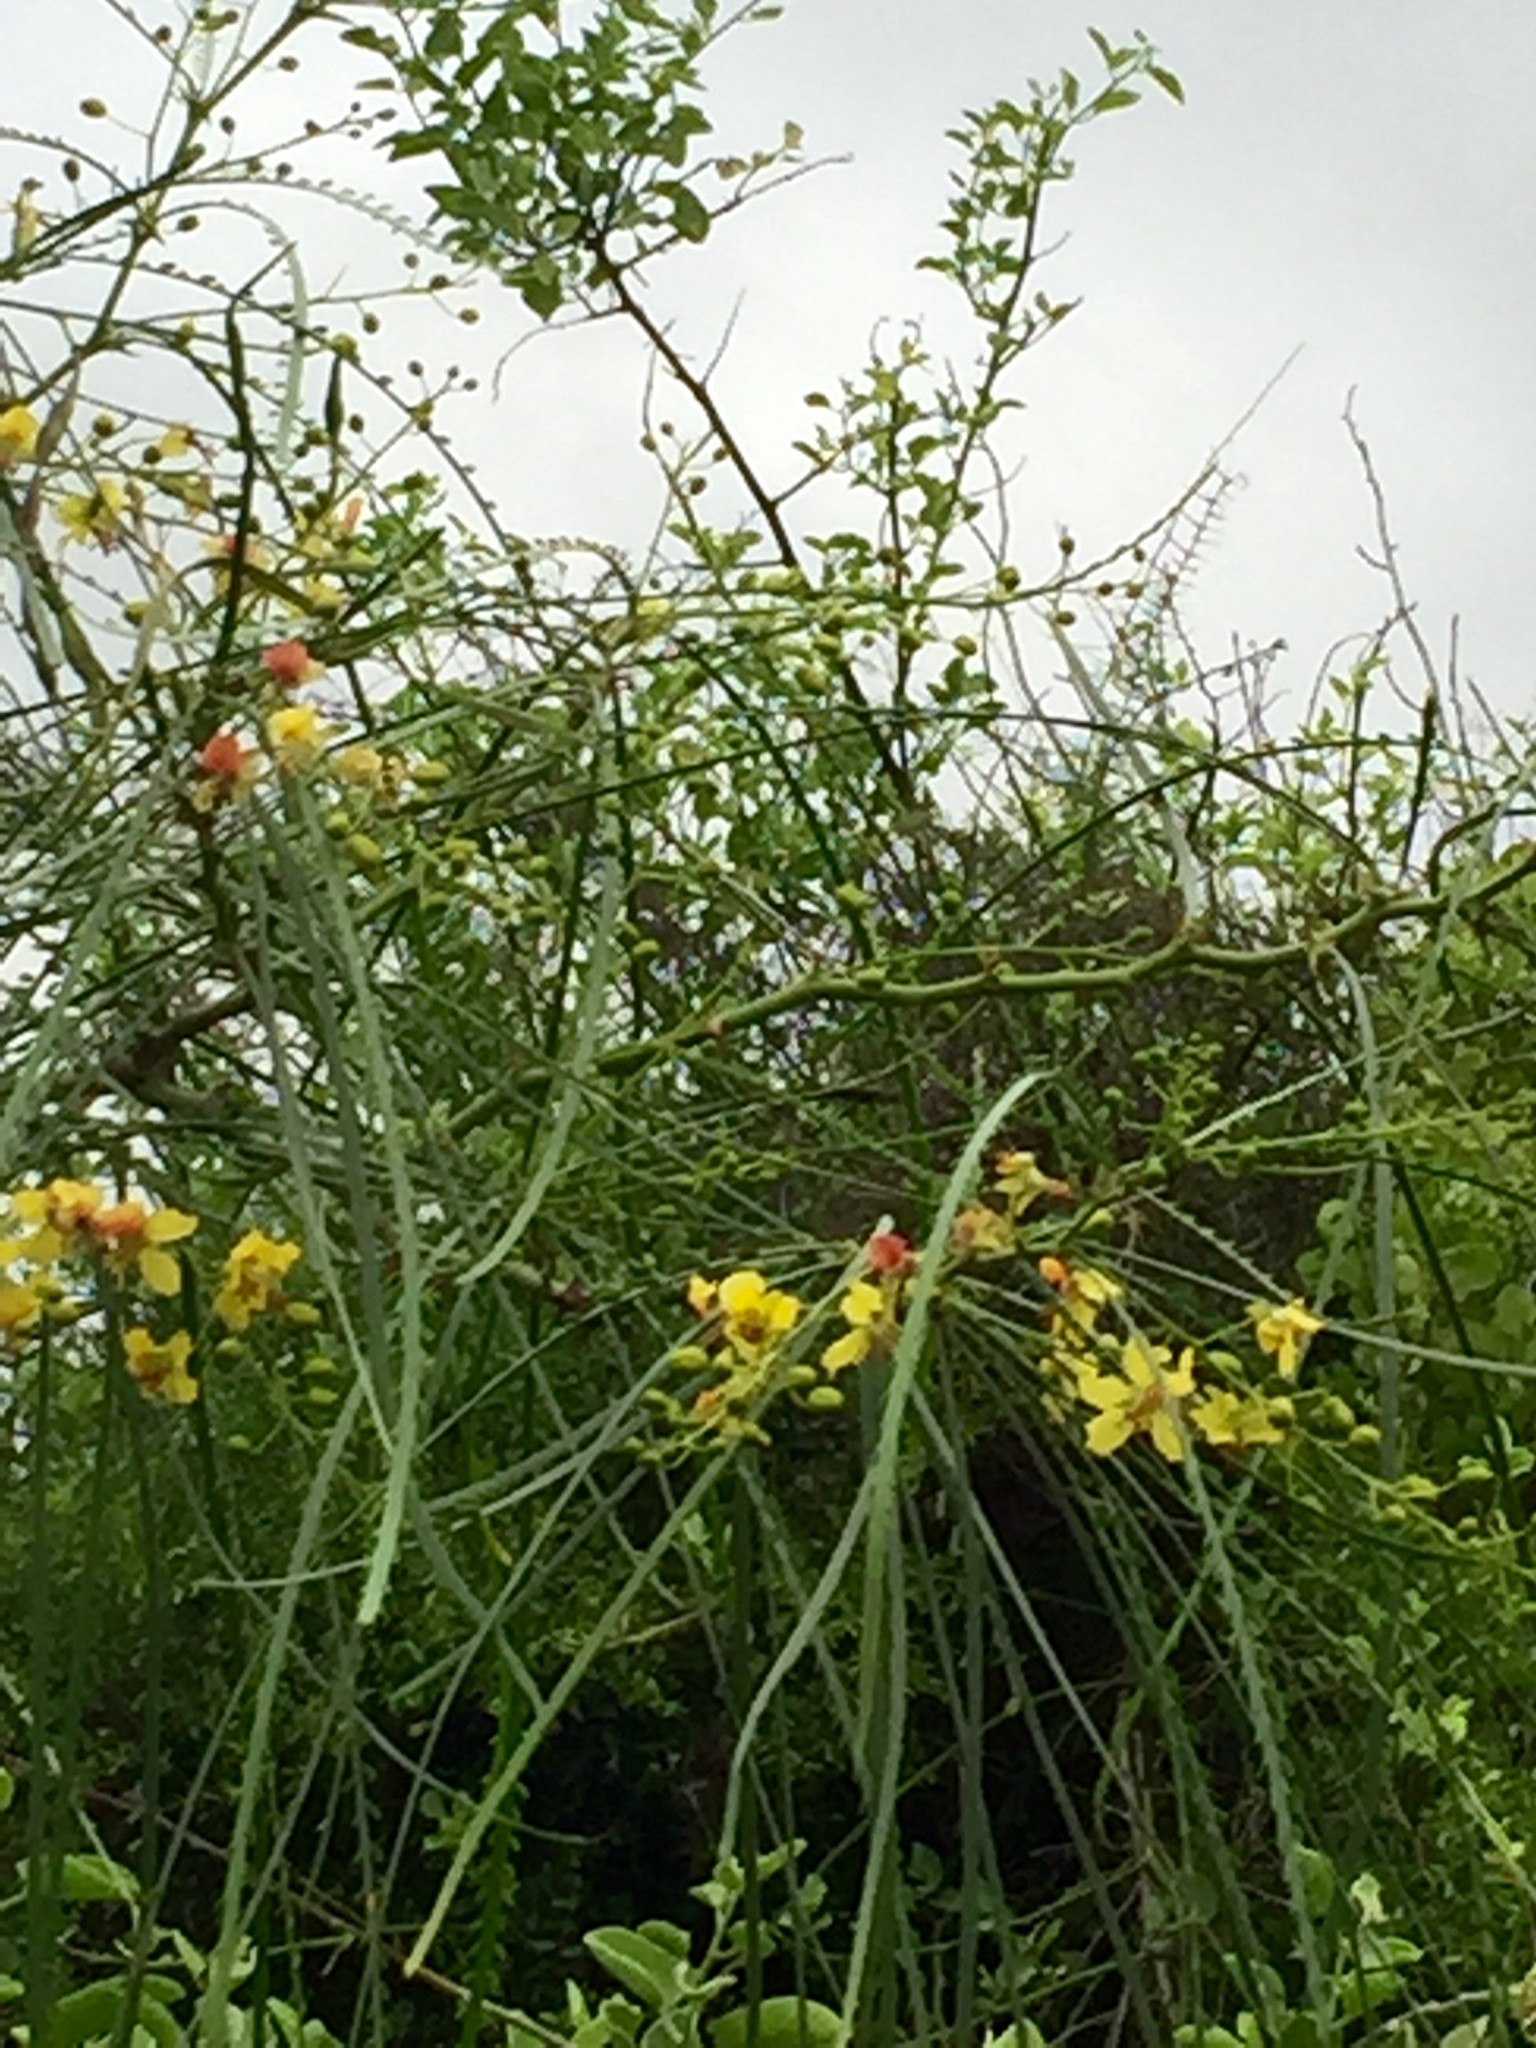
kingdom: Plantae
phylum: Tracheophyta
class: Magnoliopsida
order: Fabales
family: Fabaceae
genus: Parkinsonia
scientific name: Parkinsonia aculeata
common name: Jerusalem thorn
